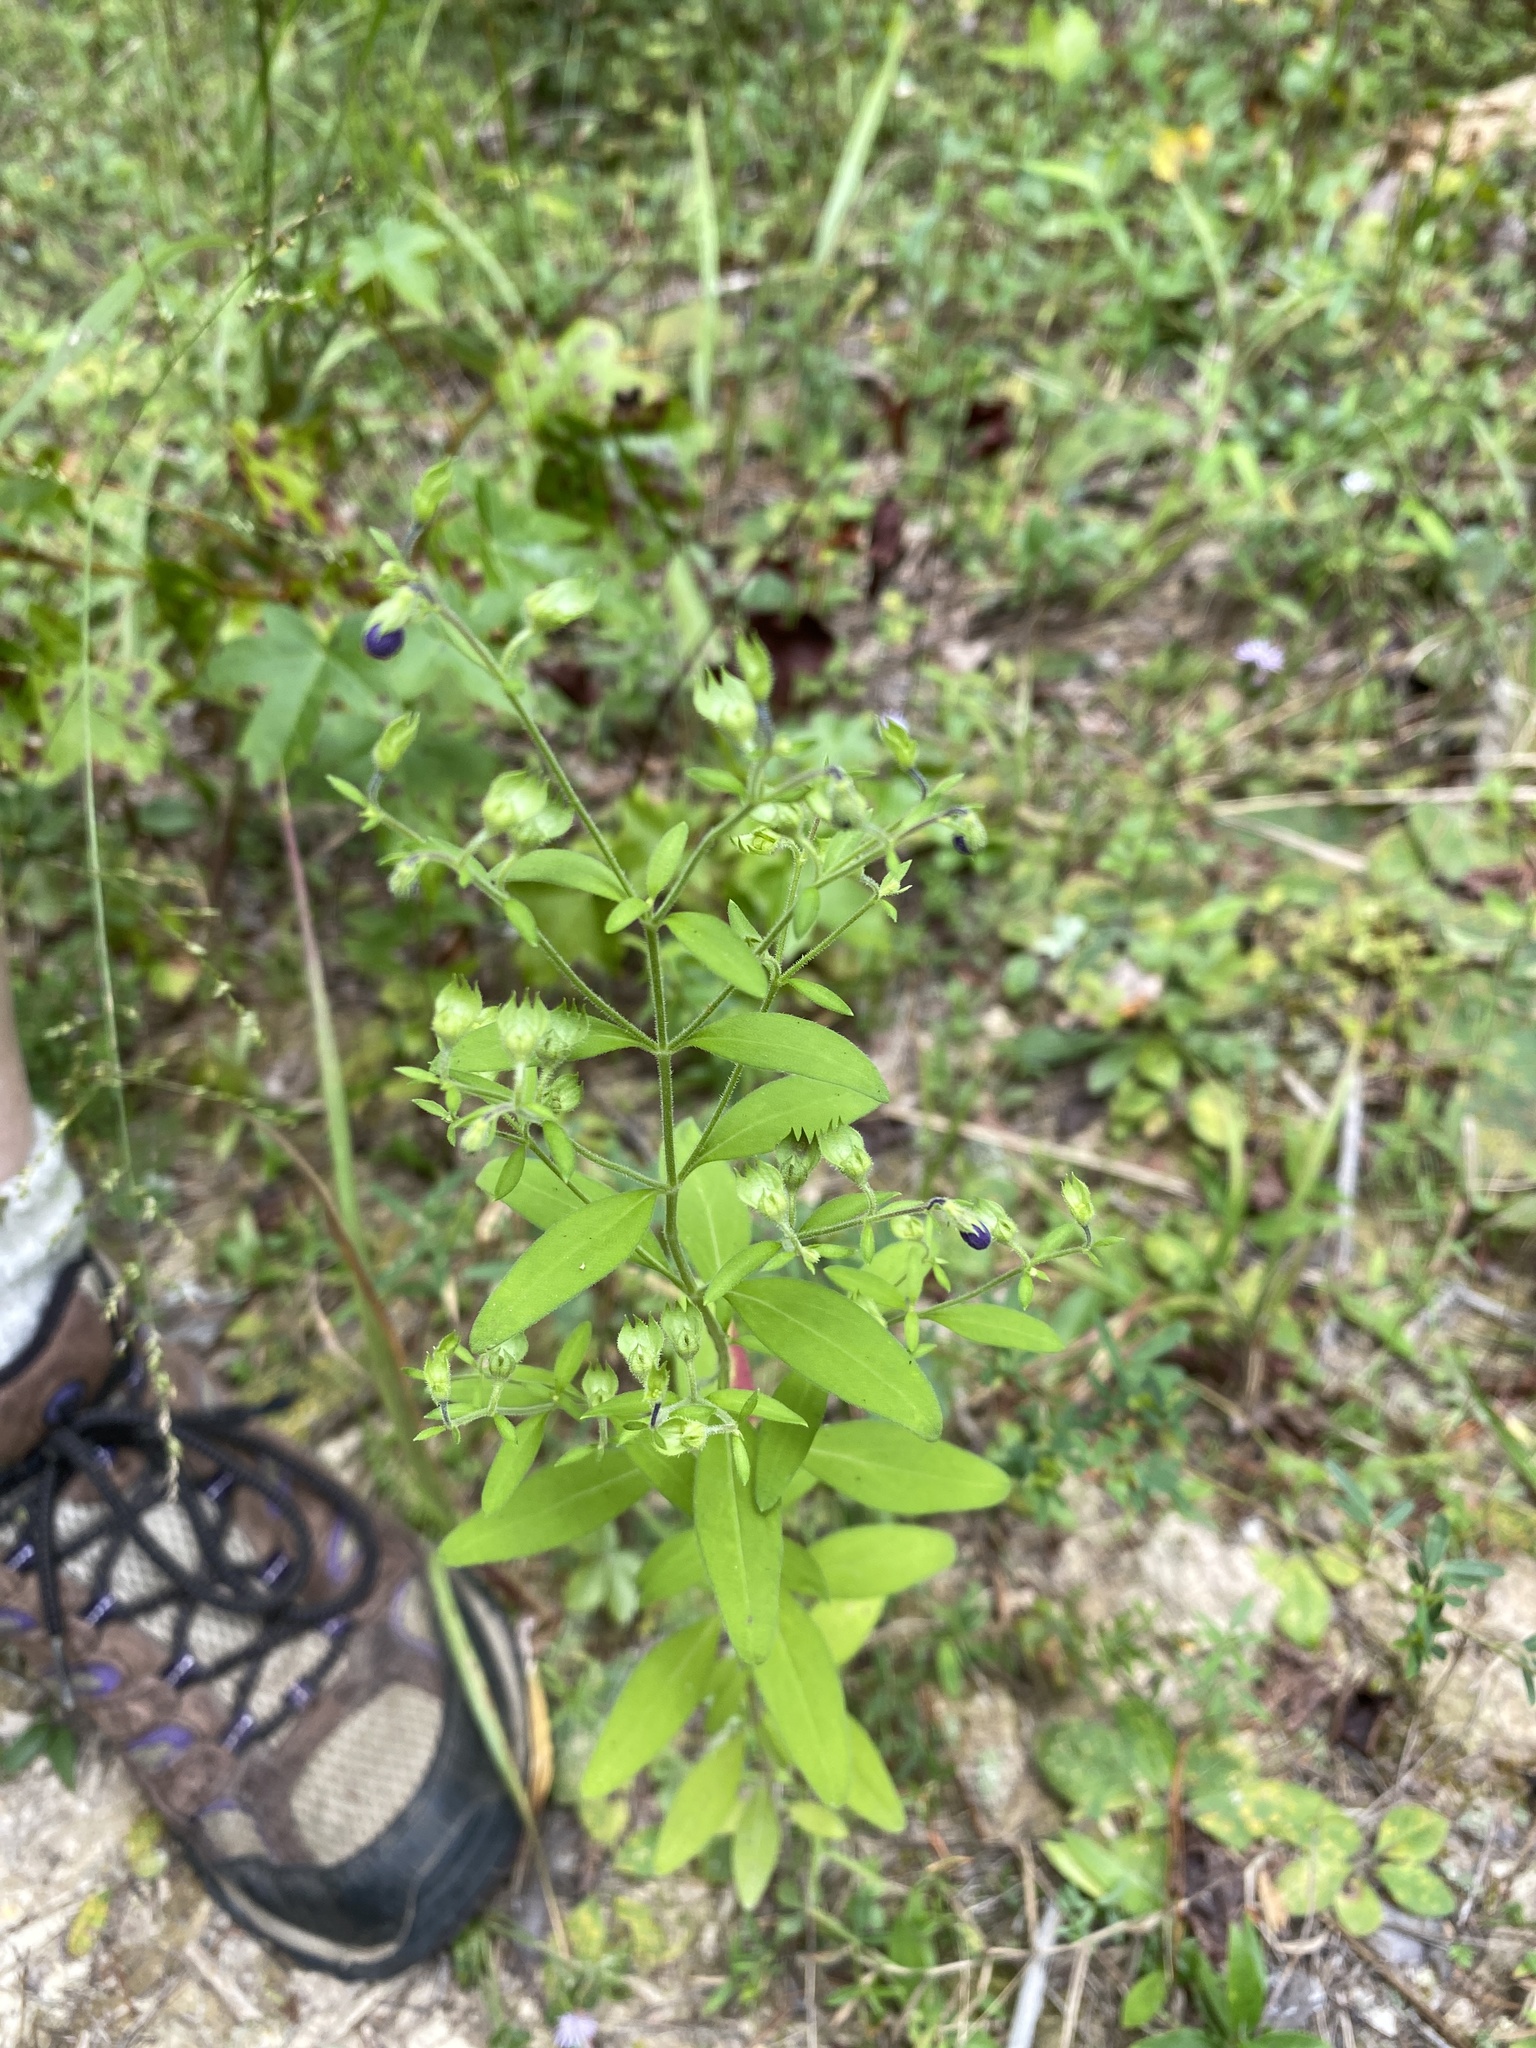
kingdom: Plantae
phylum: Tracheophyta
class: Magnoliopsida
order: Lamiales
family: Lamiaceae
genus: Trichostema
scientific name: Trichostema dichotomum
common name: Bastard pennyroyal
